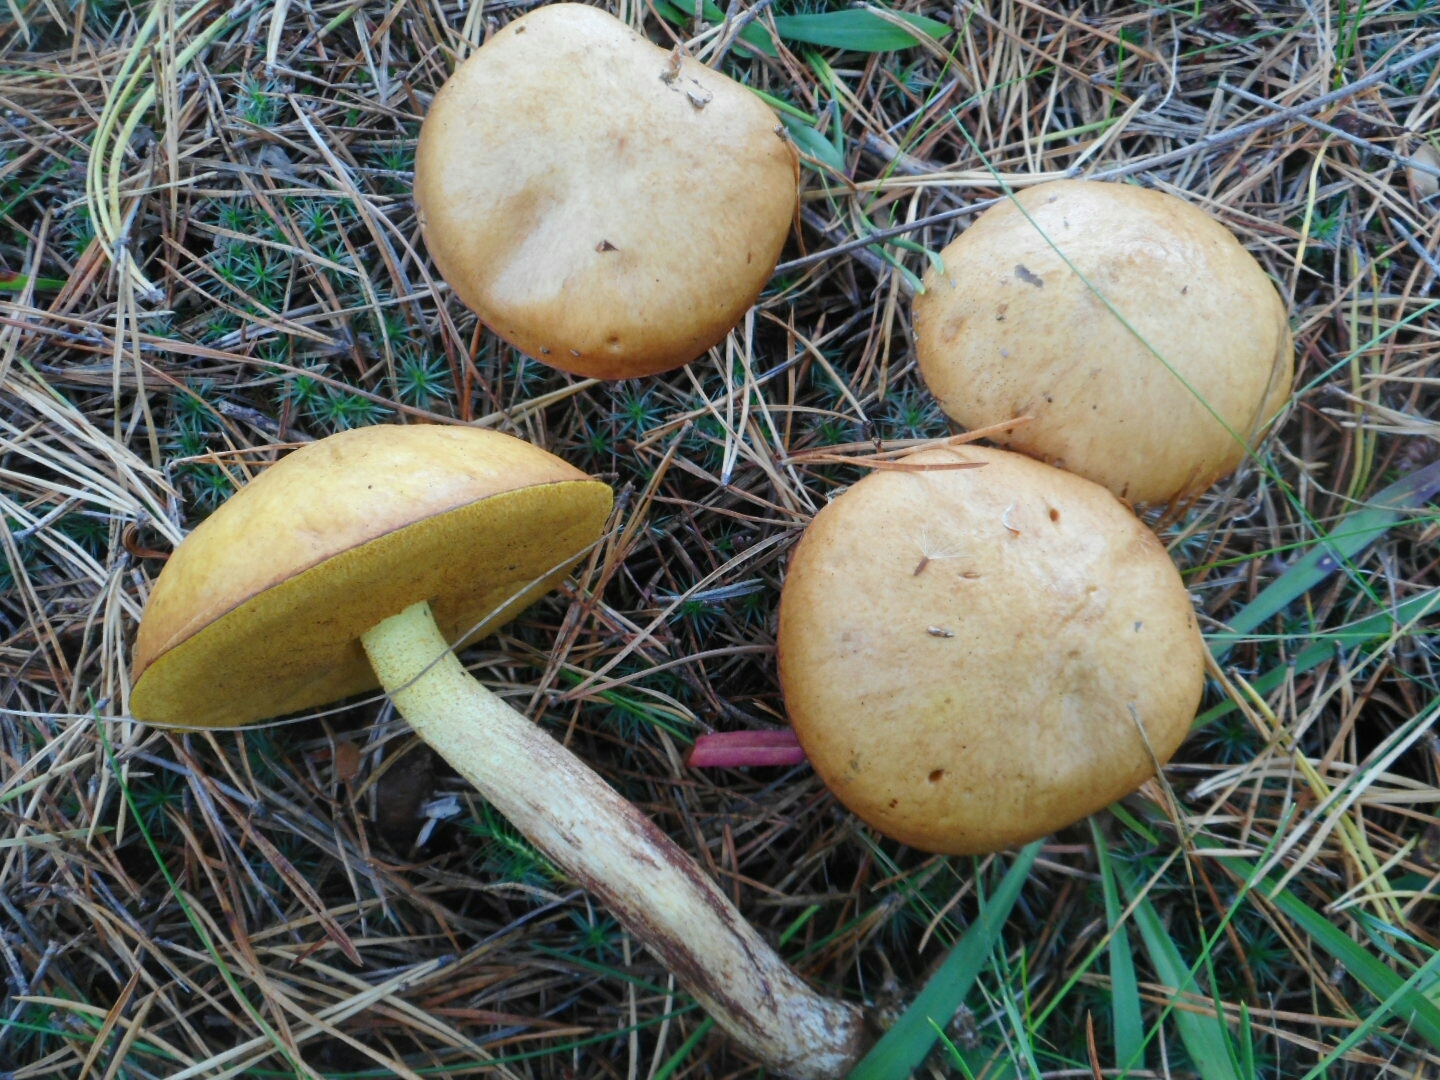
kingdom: Fungi
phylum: Basidiomycota
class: Agaricomycetes
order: Boletales
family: Suillaceae
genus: Suillus
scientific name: Suillus granulatus
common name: Weeping bolete
